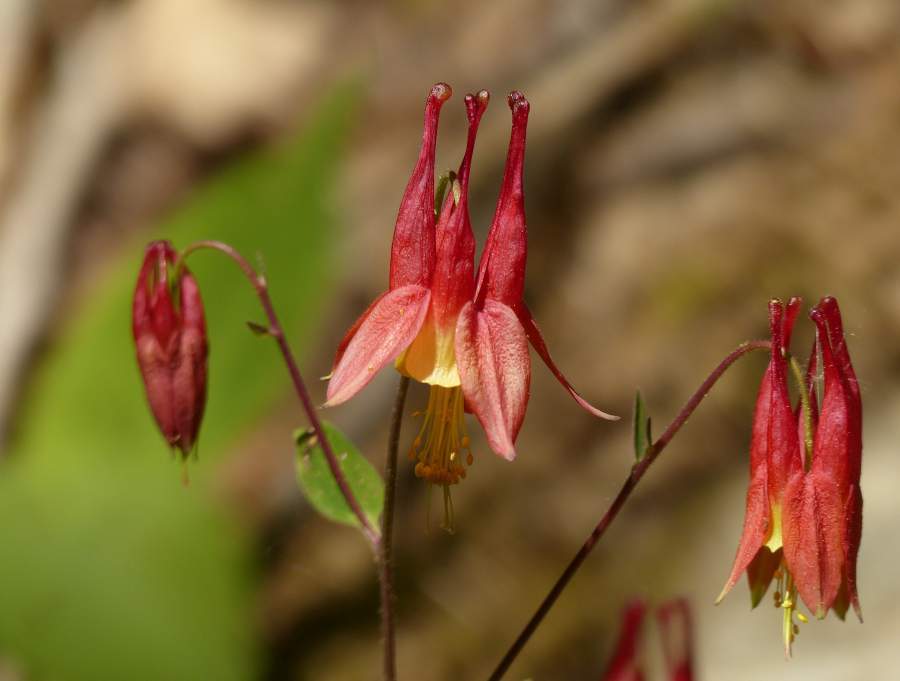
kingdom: Plantae
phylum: Tracheophyta
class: Magnoliopsida
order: Ranunculales
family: Ranunculaceae
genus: Aquilegia
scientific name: Aquilegia canadensis
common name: American columbine
